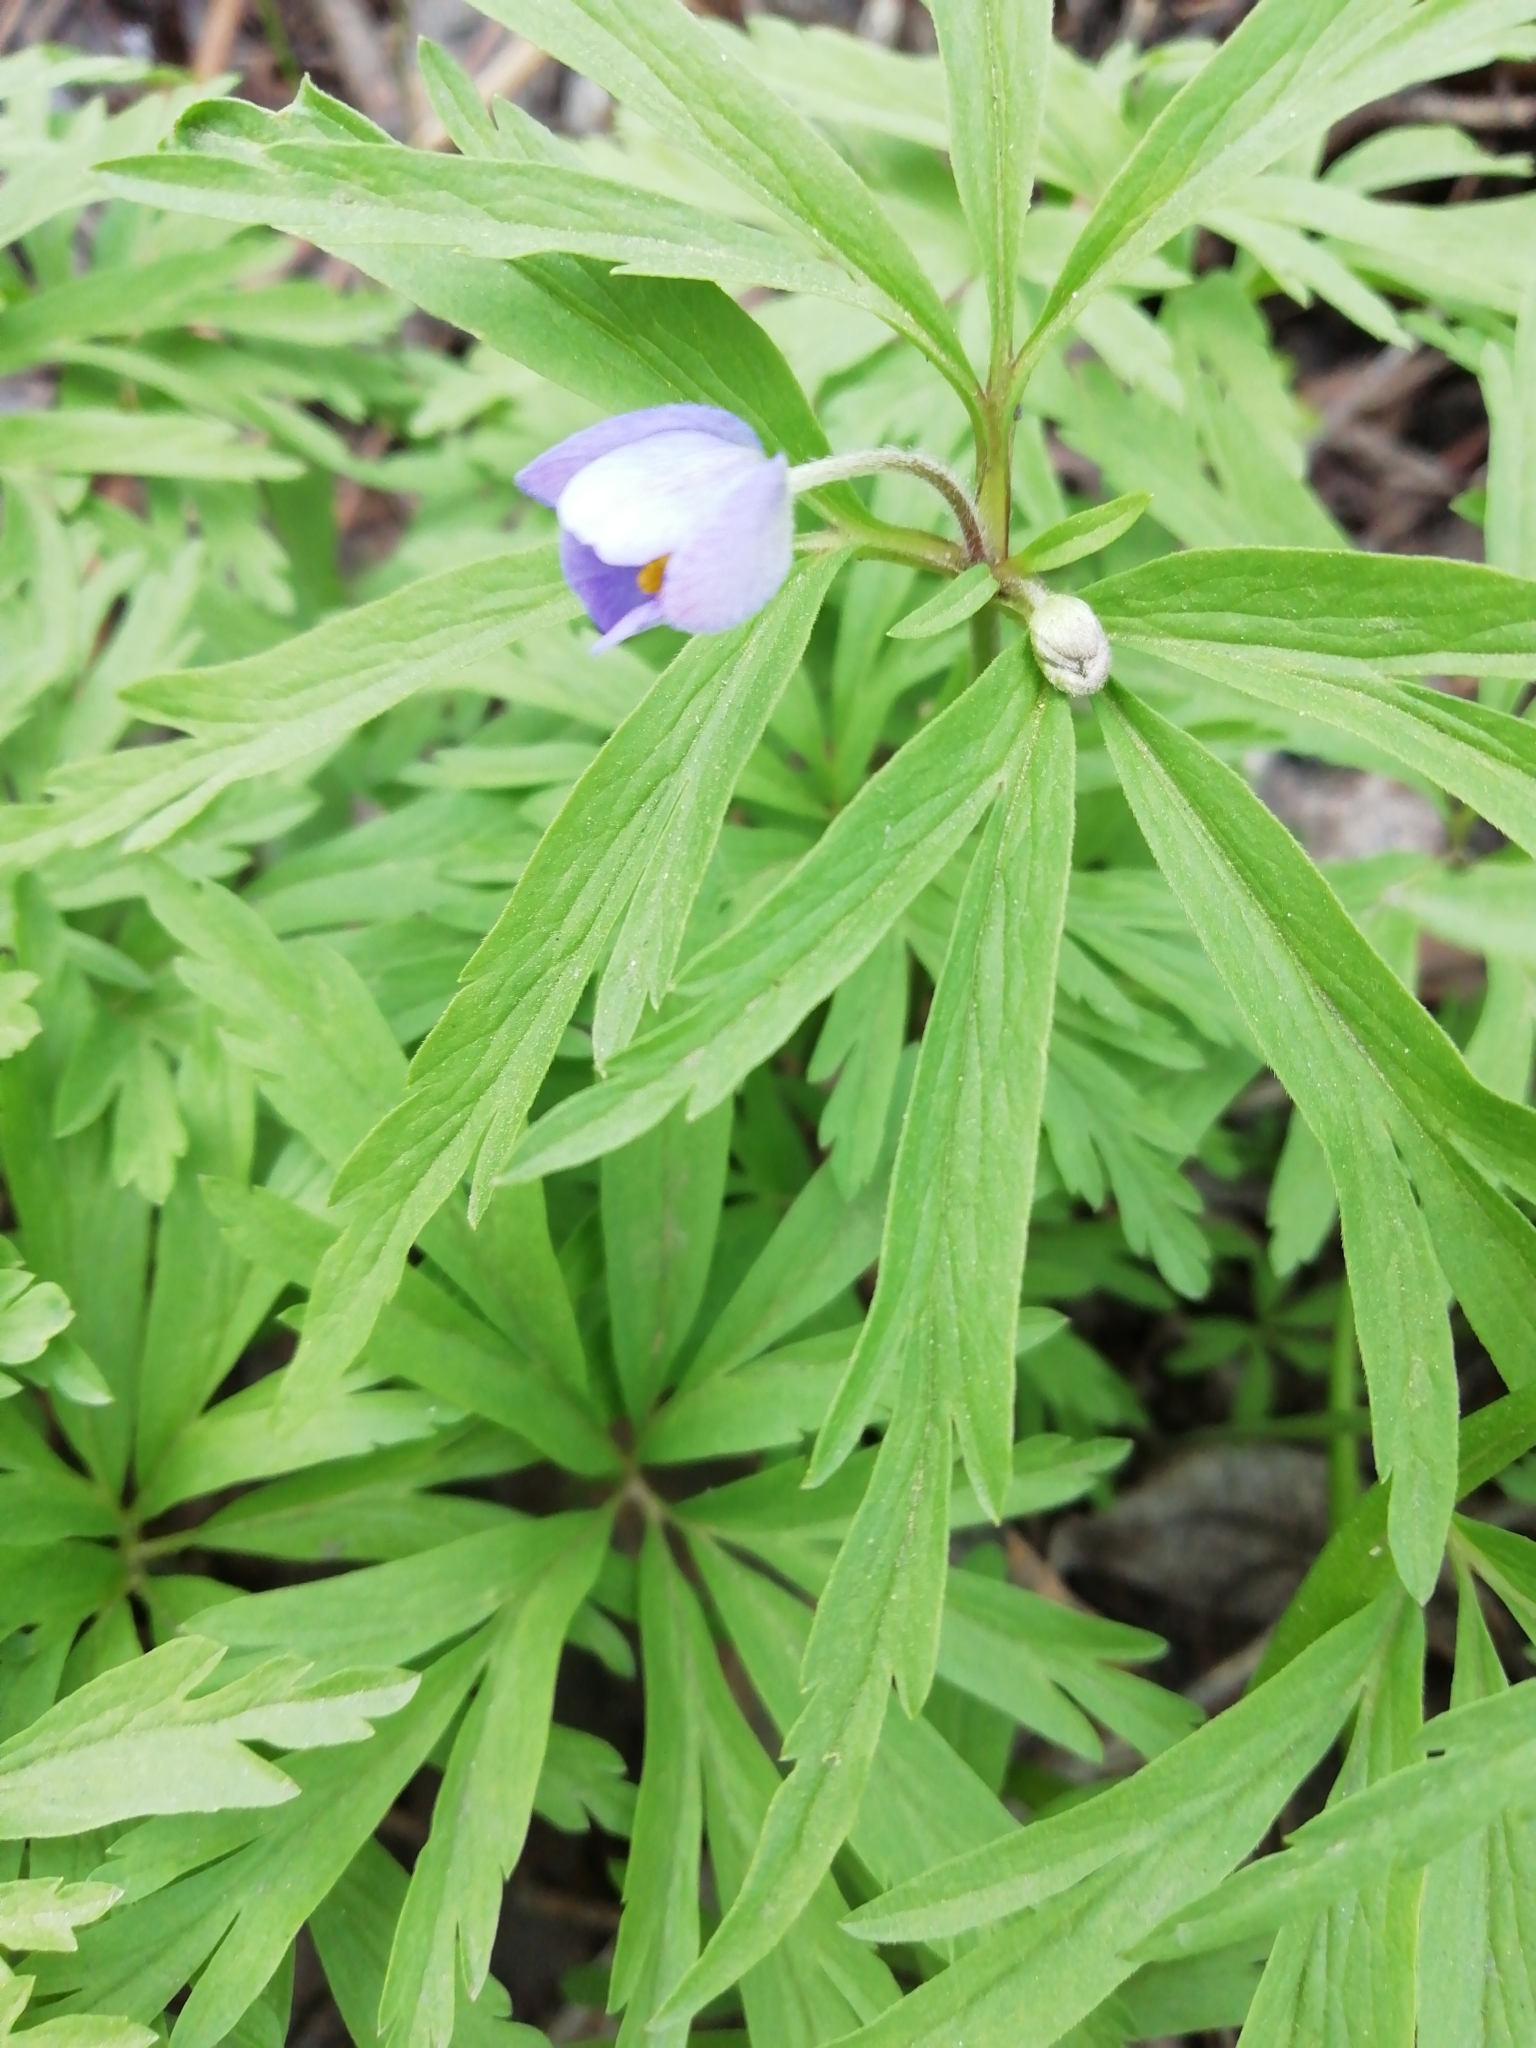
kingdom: Plantae
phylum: Tracheophyta
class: Magnoliopsida
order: Ranunculales
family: Ranunculaceae
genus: Anemone
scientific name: Anemone caerulea
